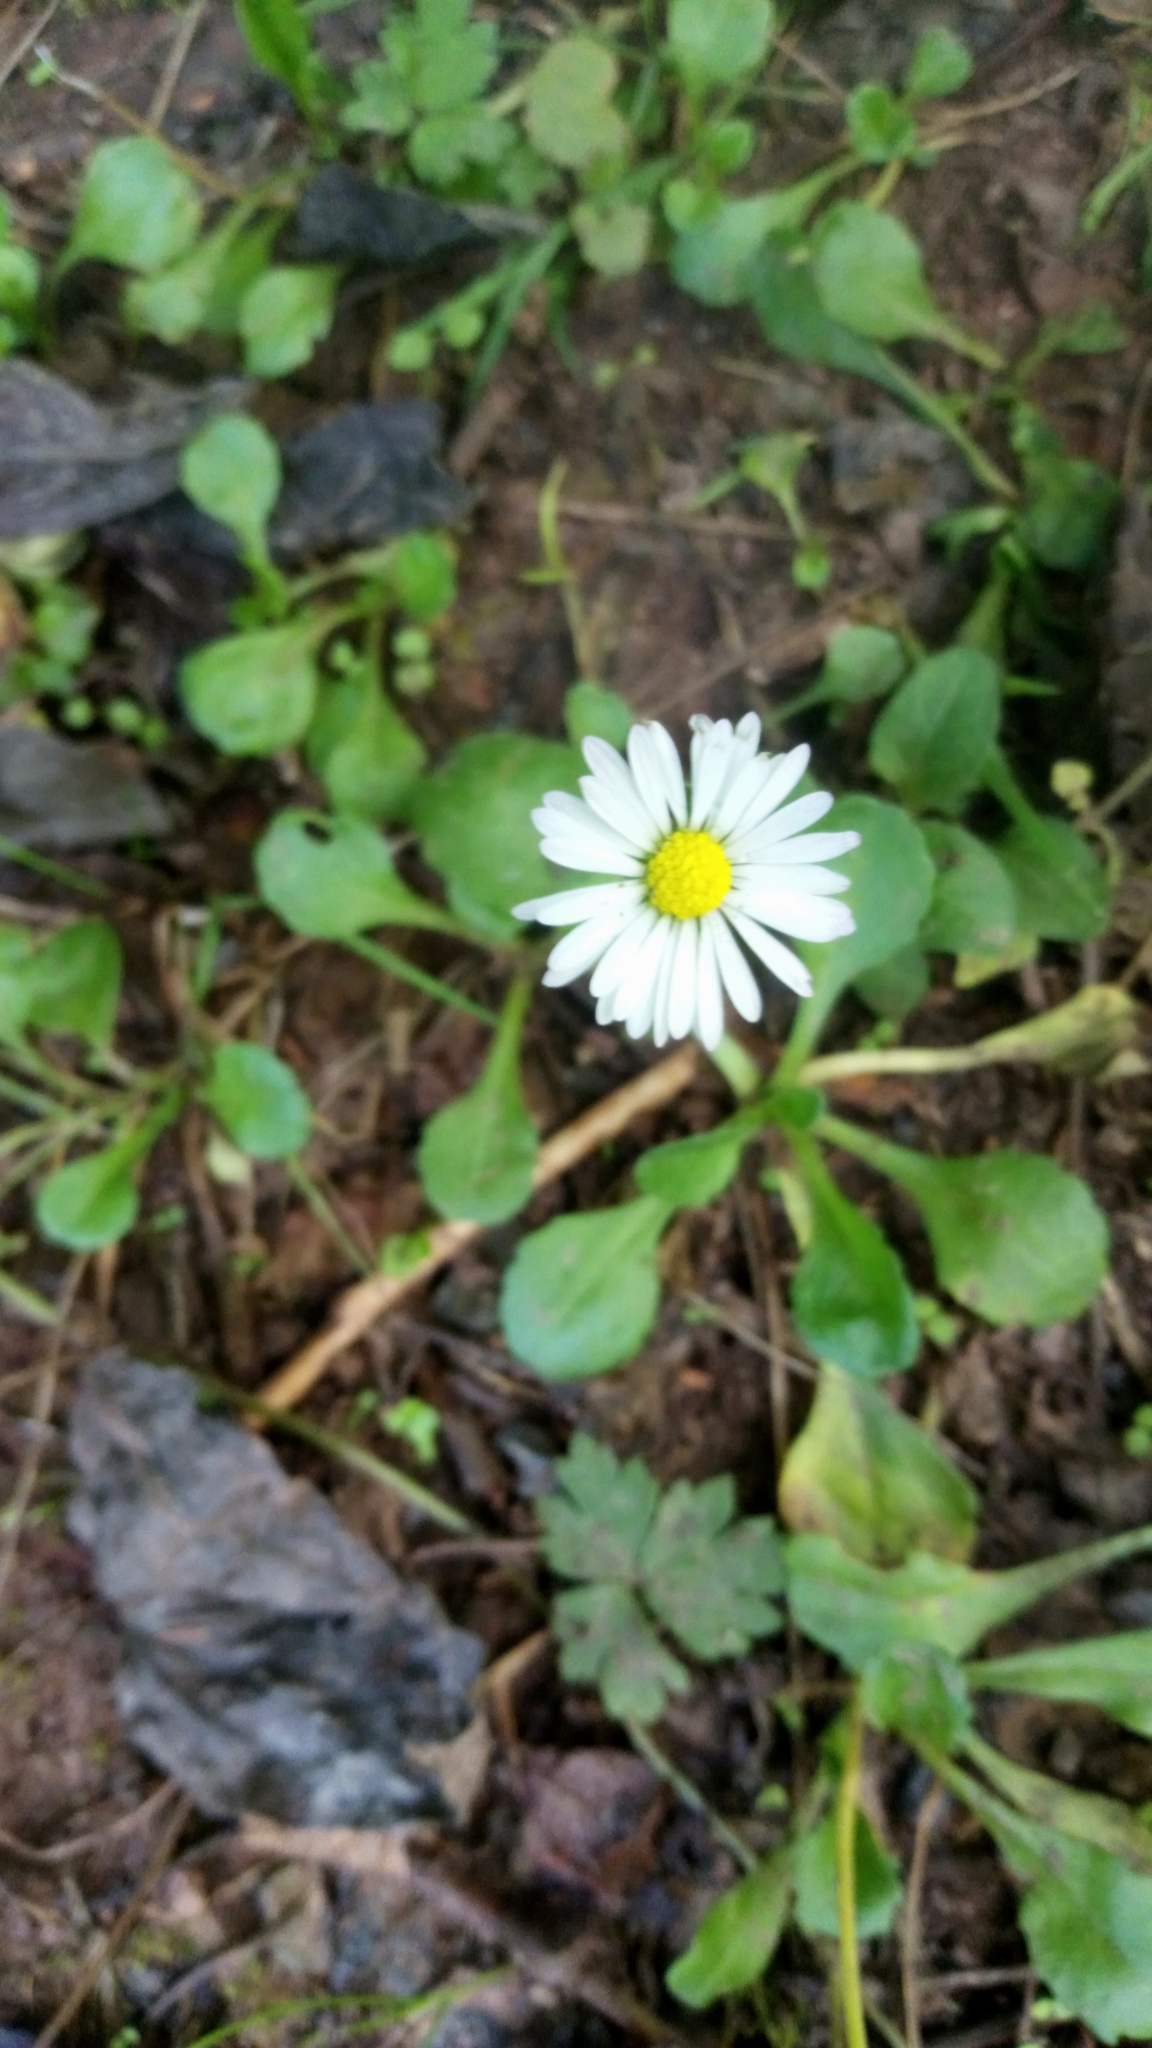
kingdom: Plantae
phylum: Tracheophyta
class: Magnoliopsida
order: Asterales
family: Asteraceae
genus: Bellis
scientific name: Bellis perennis
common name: Lawndaisy
